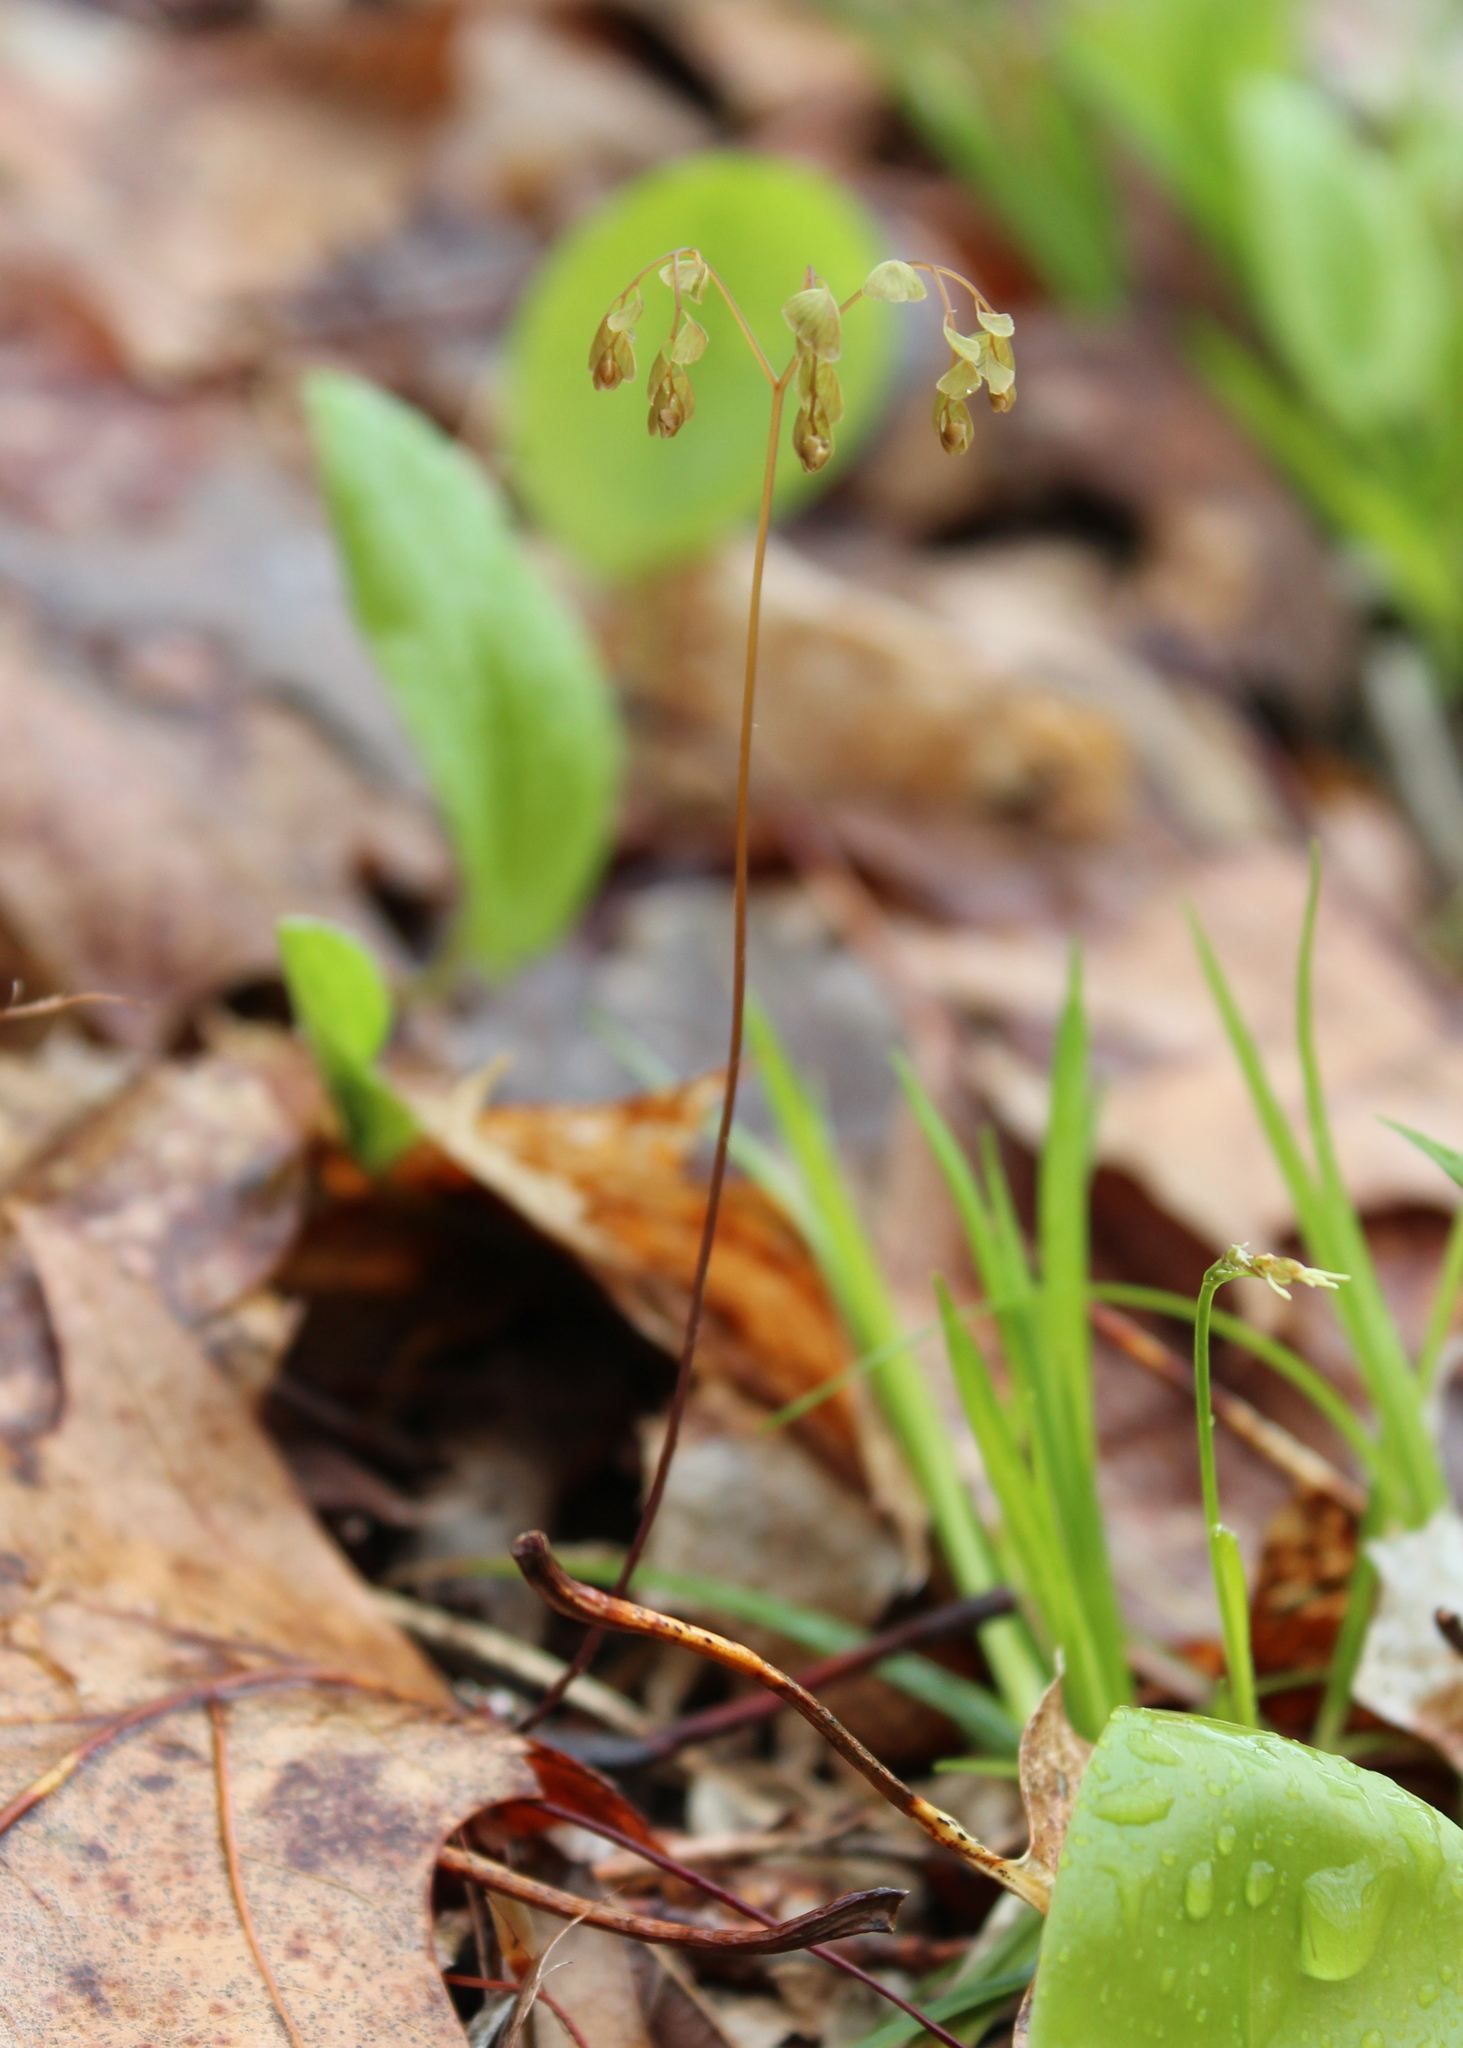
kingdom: Plantae
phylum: Tracheophyta
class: Polypodiopsida
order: Polypodiales
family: Pteridaceae
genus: Adiantum
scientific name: Adiantum pedatum
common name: Five-finger fern
